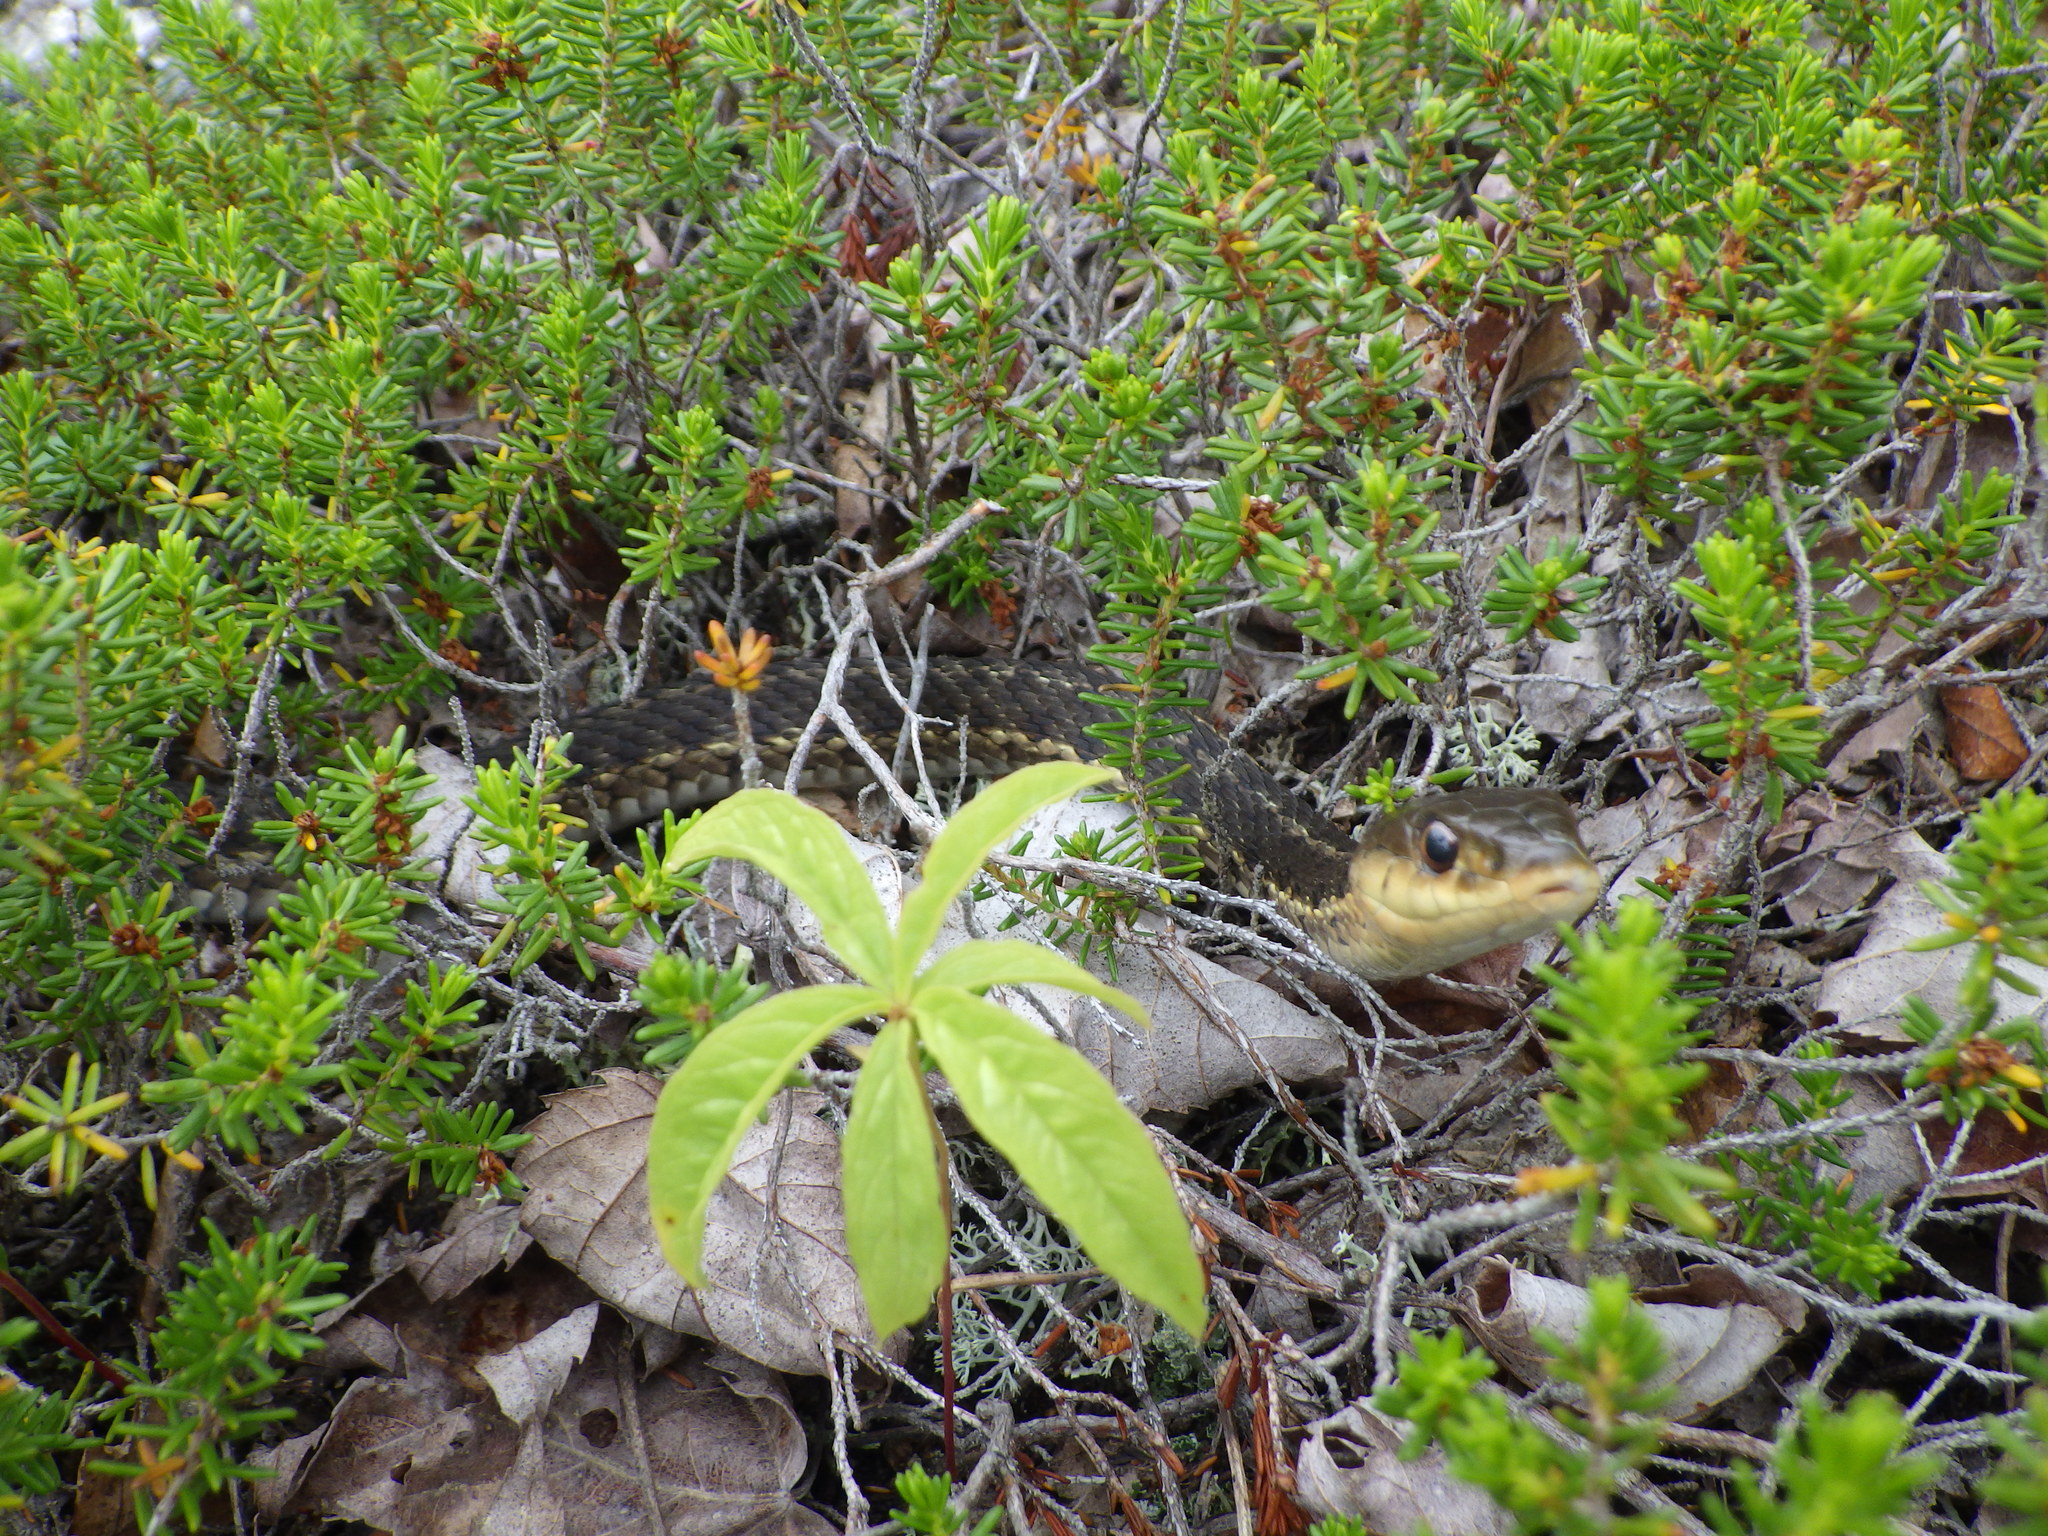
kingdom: Animalia
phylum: Chordata
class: Squamata
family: Colubridae
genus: Thamnophis
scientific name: Thamnophis sirtalis
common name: Common garter snake
